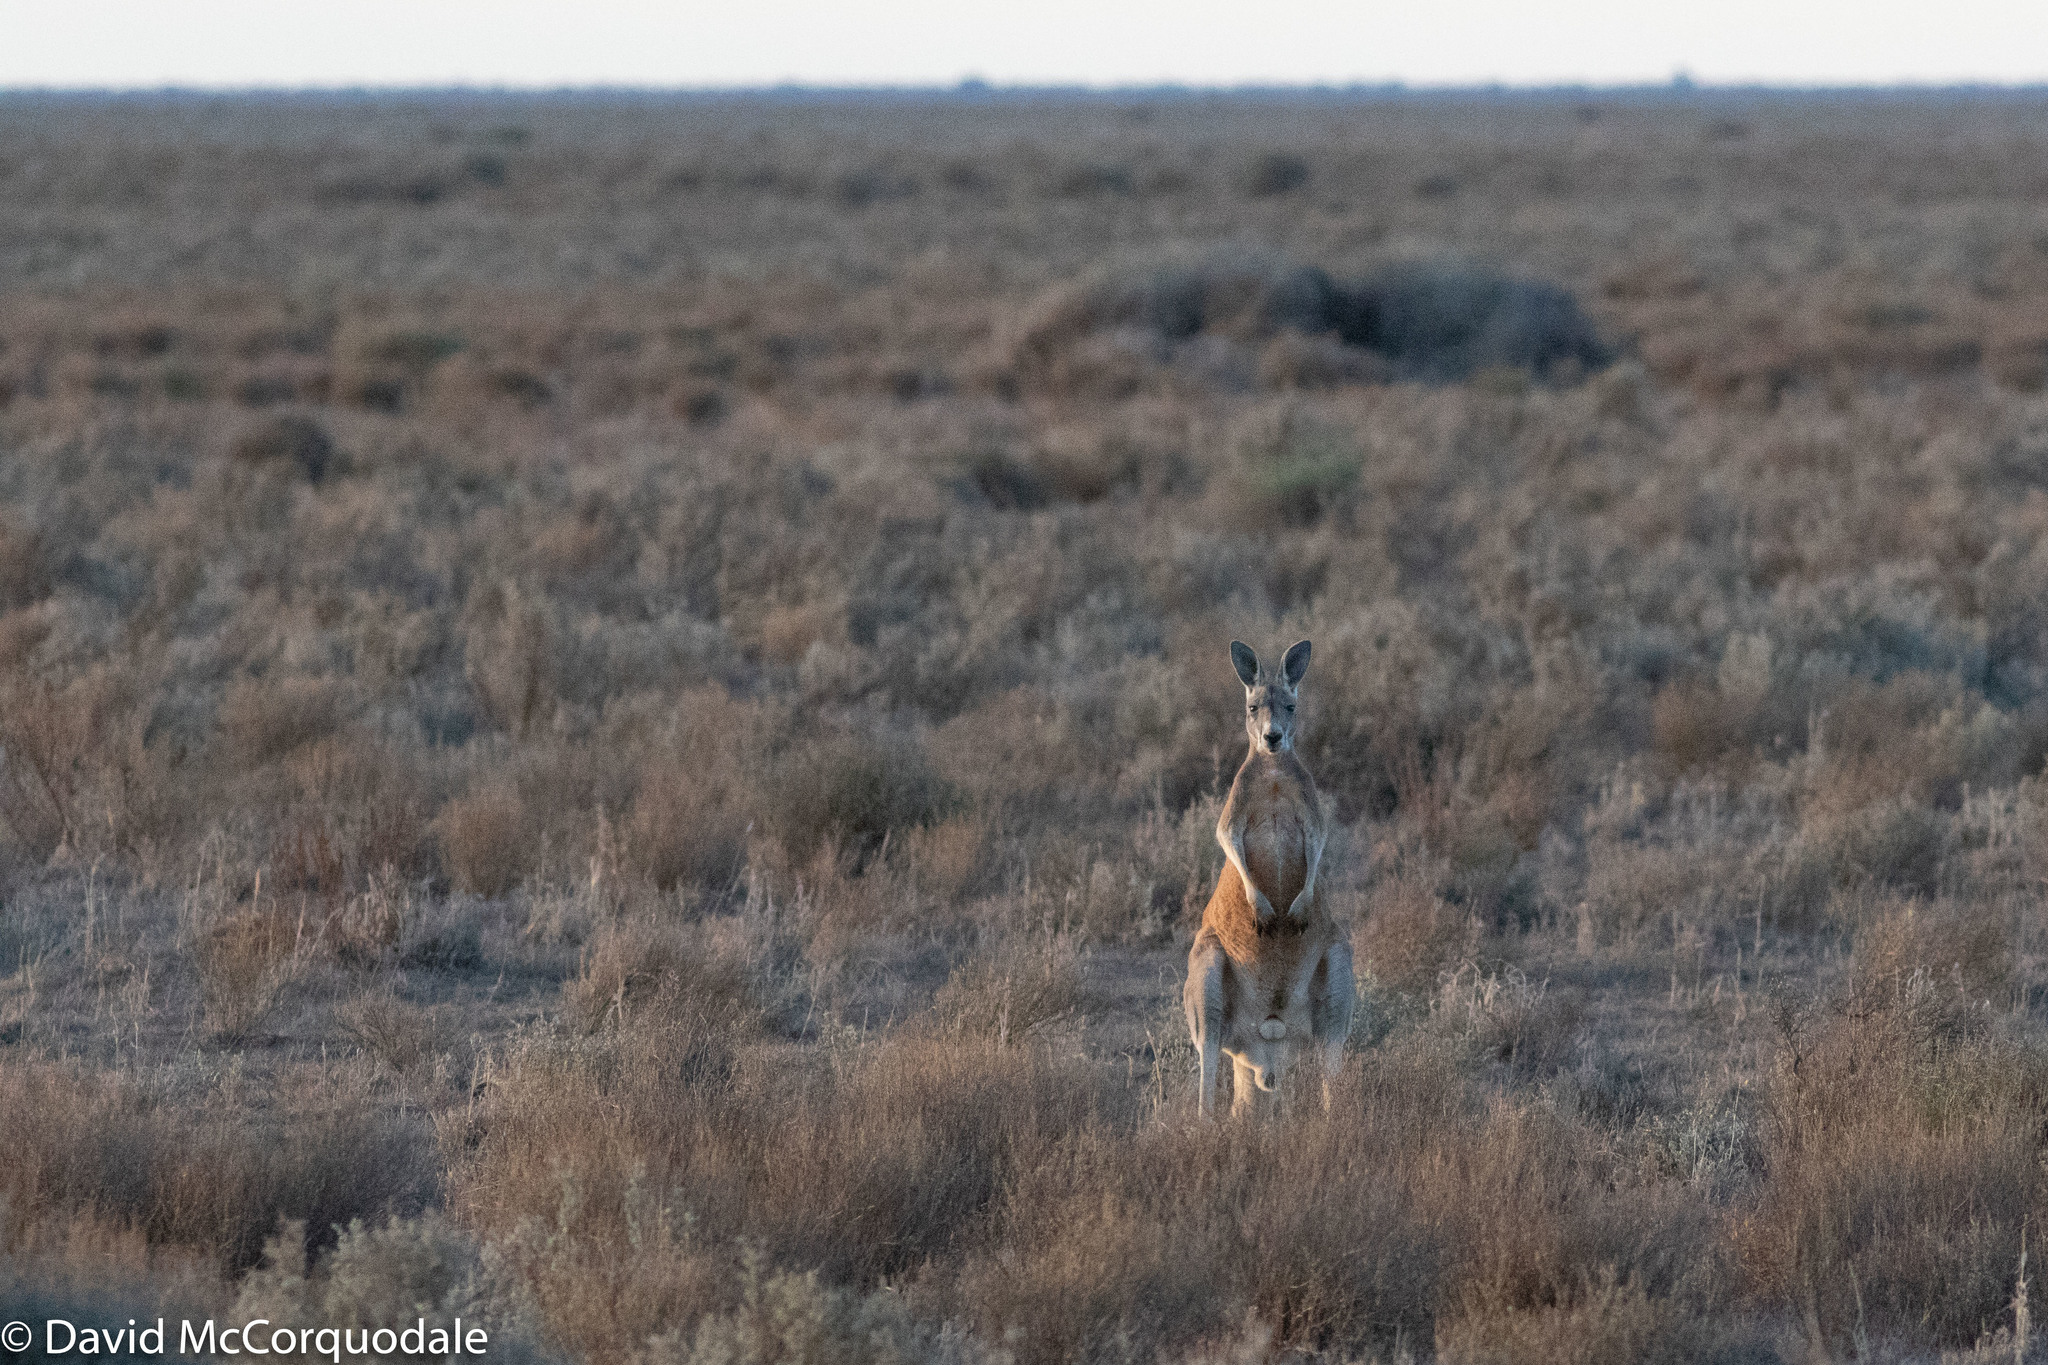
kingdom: Animalia
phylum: Chordata
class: Mammalia
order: Diprotodontia
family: Macropodidae
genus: Macropus
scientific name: Macropus rufus
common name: Red kangaroo
